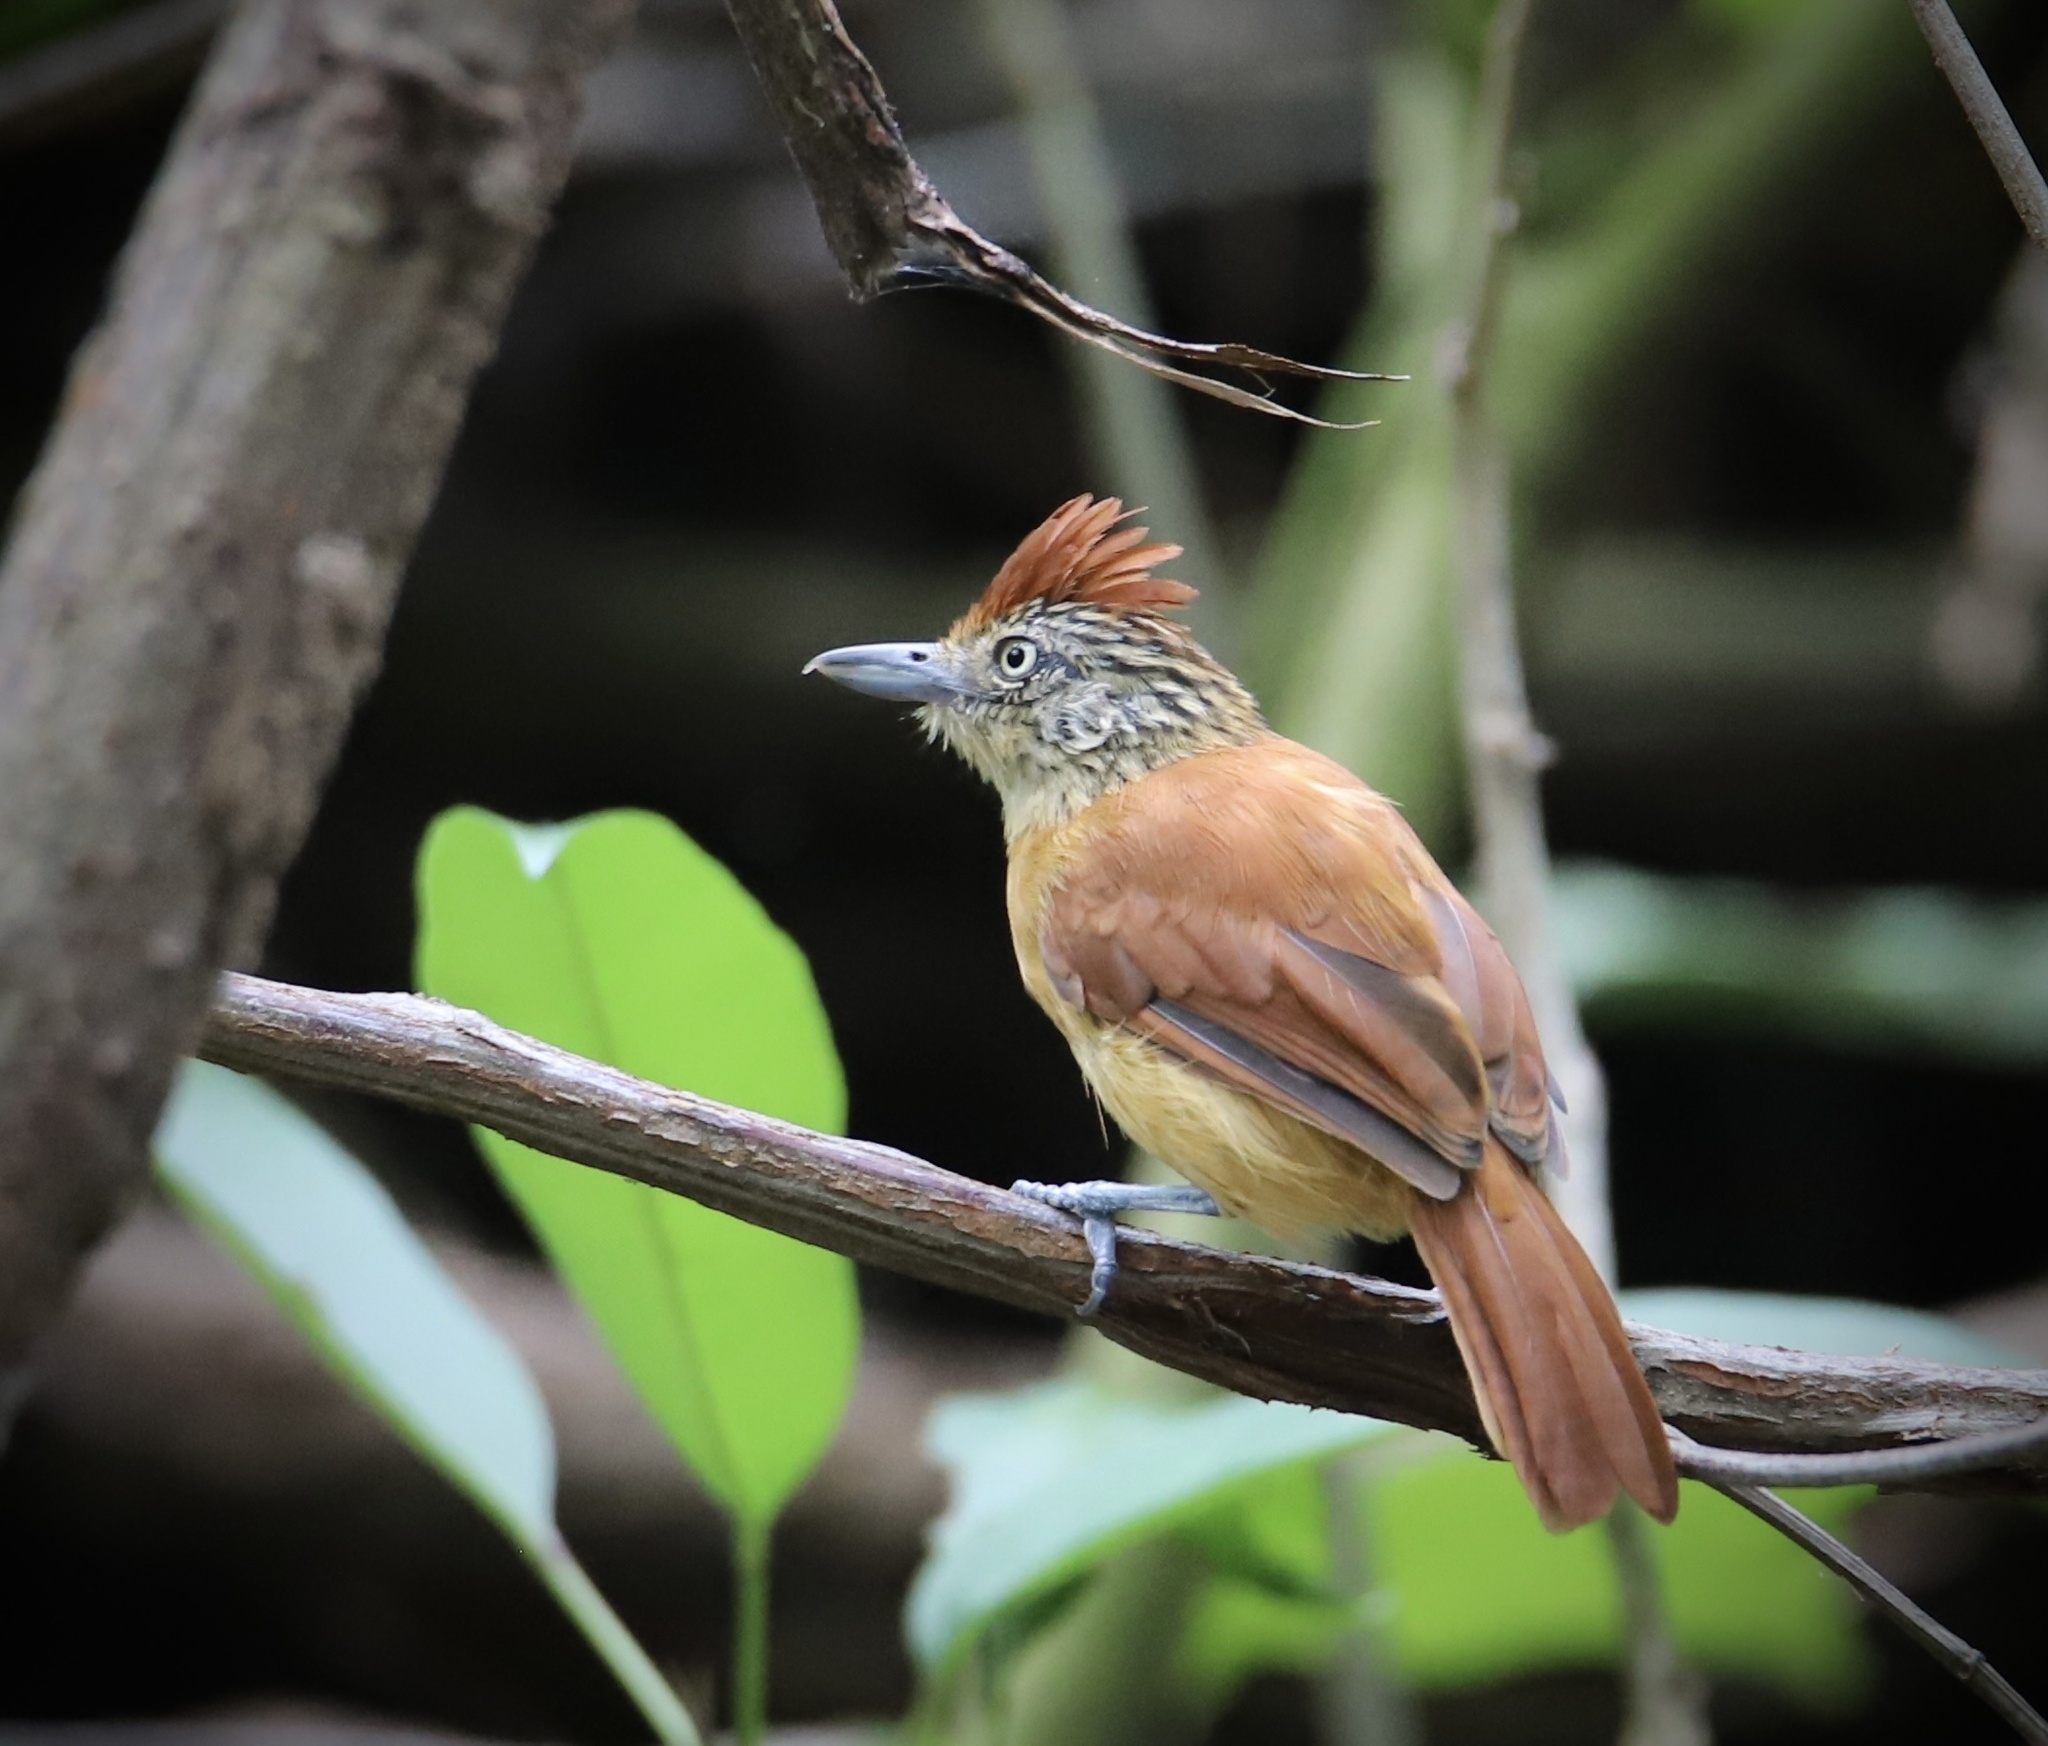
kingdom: Animalia
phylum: Chordata
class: Aves
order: Passeriformes
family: Thamnophilidae
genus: Thamnophilus
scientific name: Thamnophilus doliatus
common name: Barred antshrike
